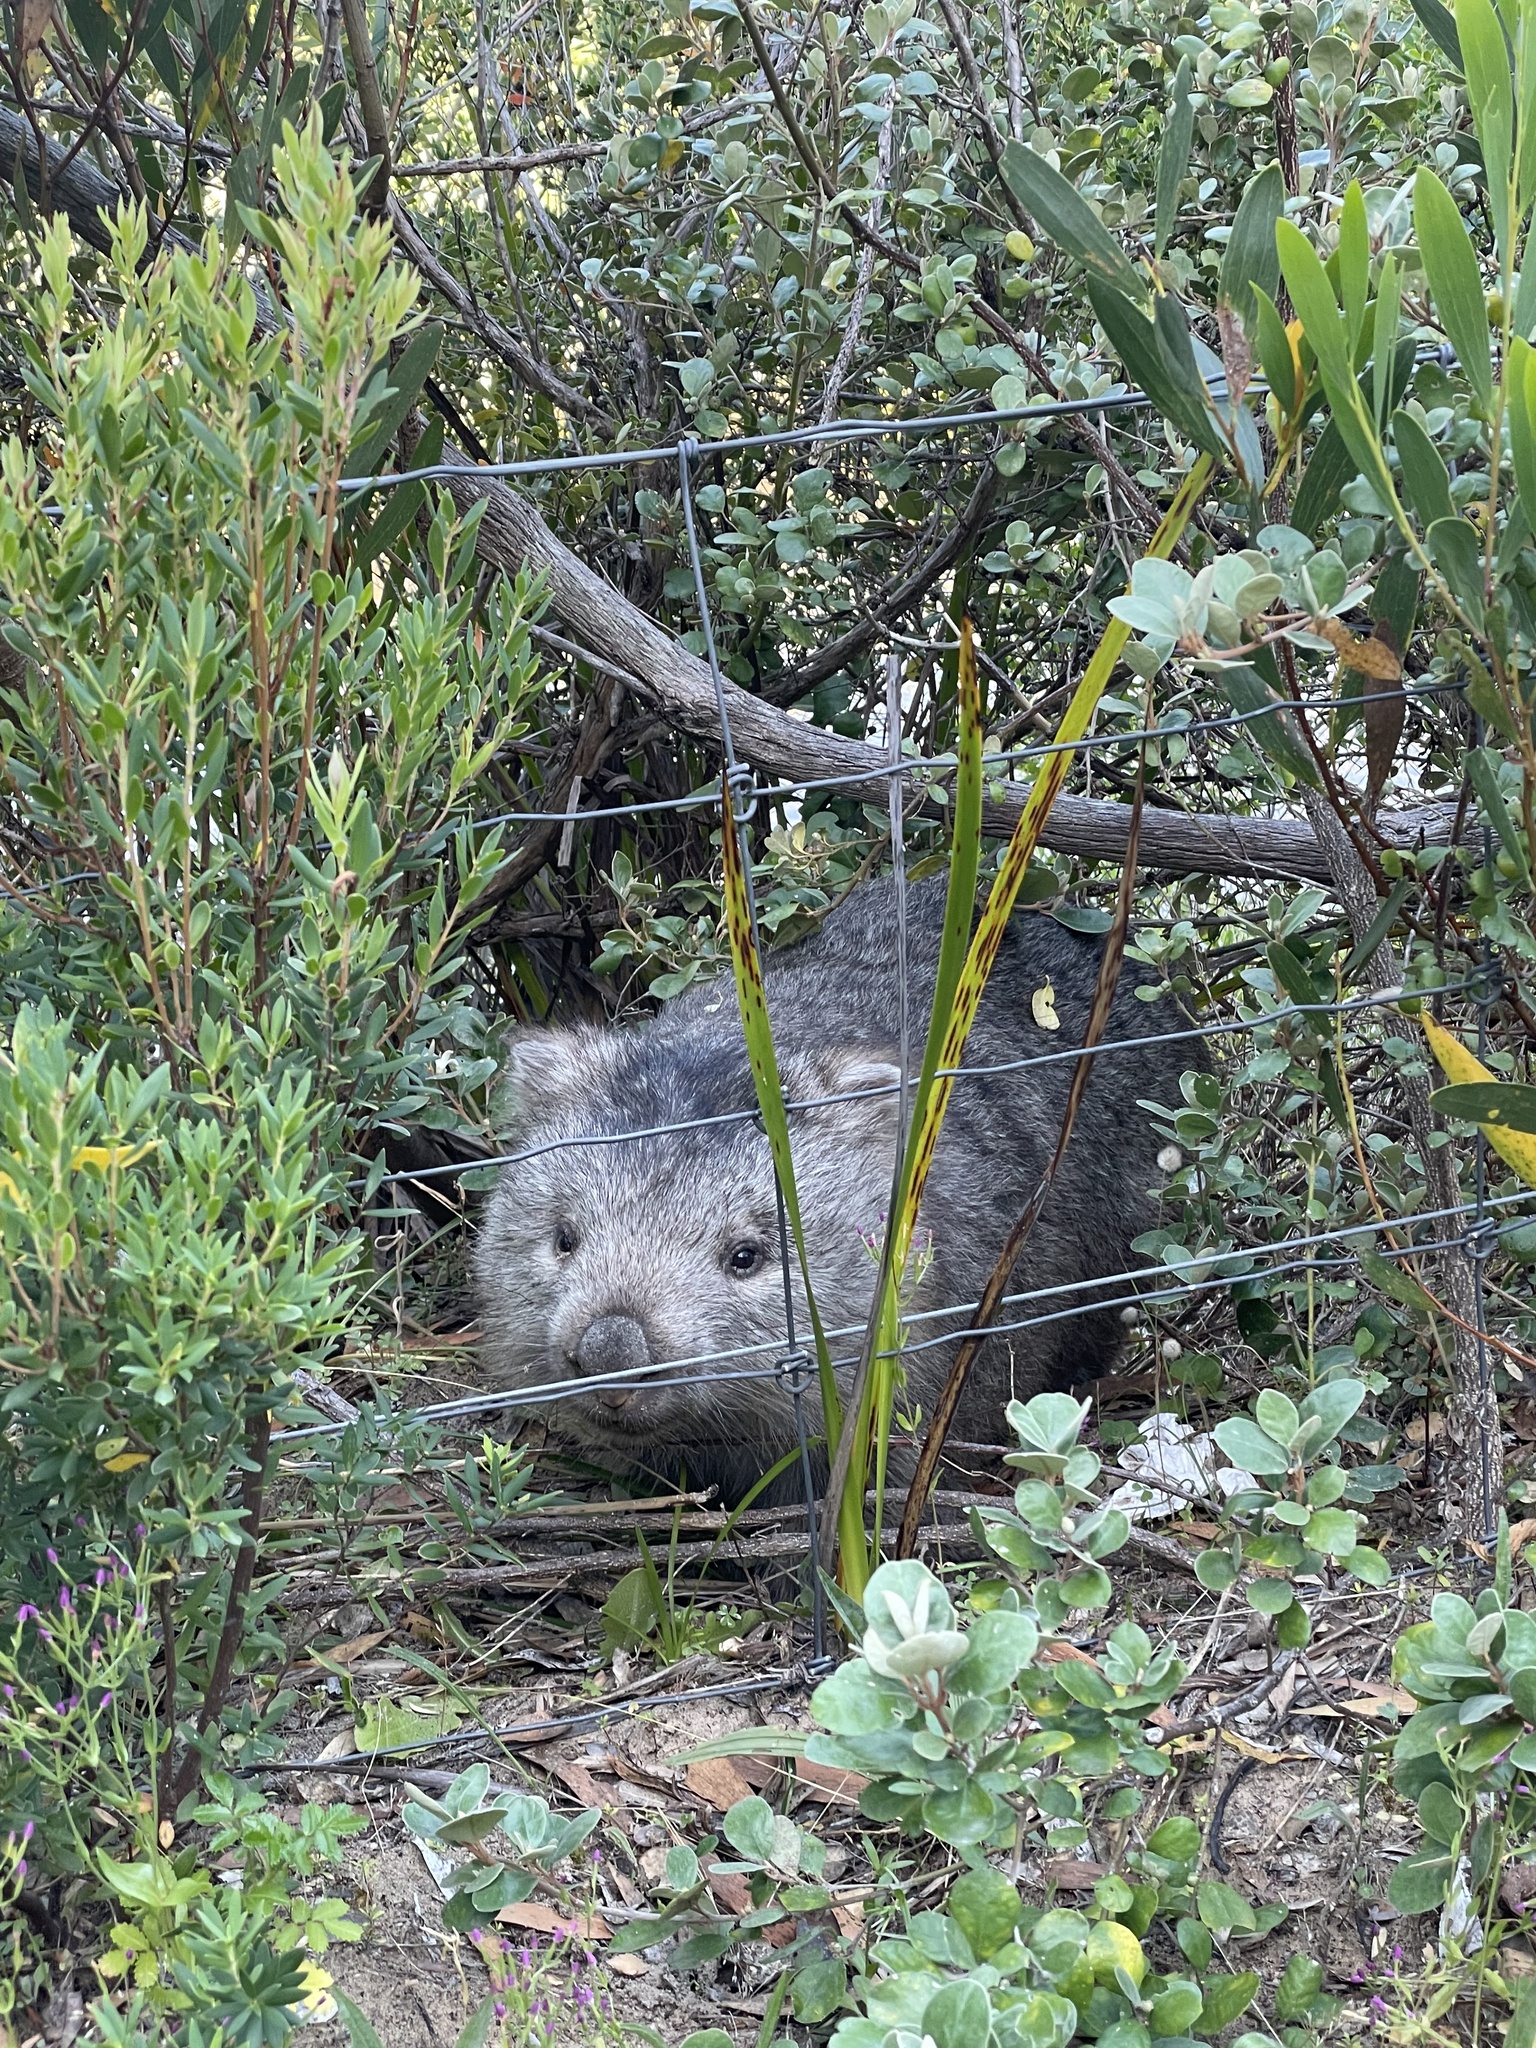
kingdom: Animalia
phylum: Chordata
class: Mammalia
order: Diprotodontia
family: Vombatidae
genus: Vombatus
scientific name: Vombatus ursinus
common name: Common wombat
